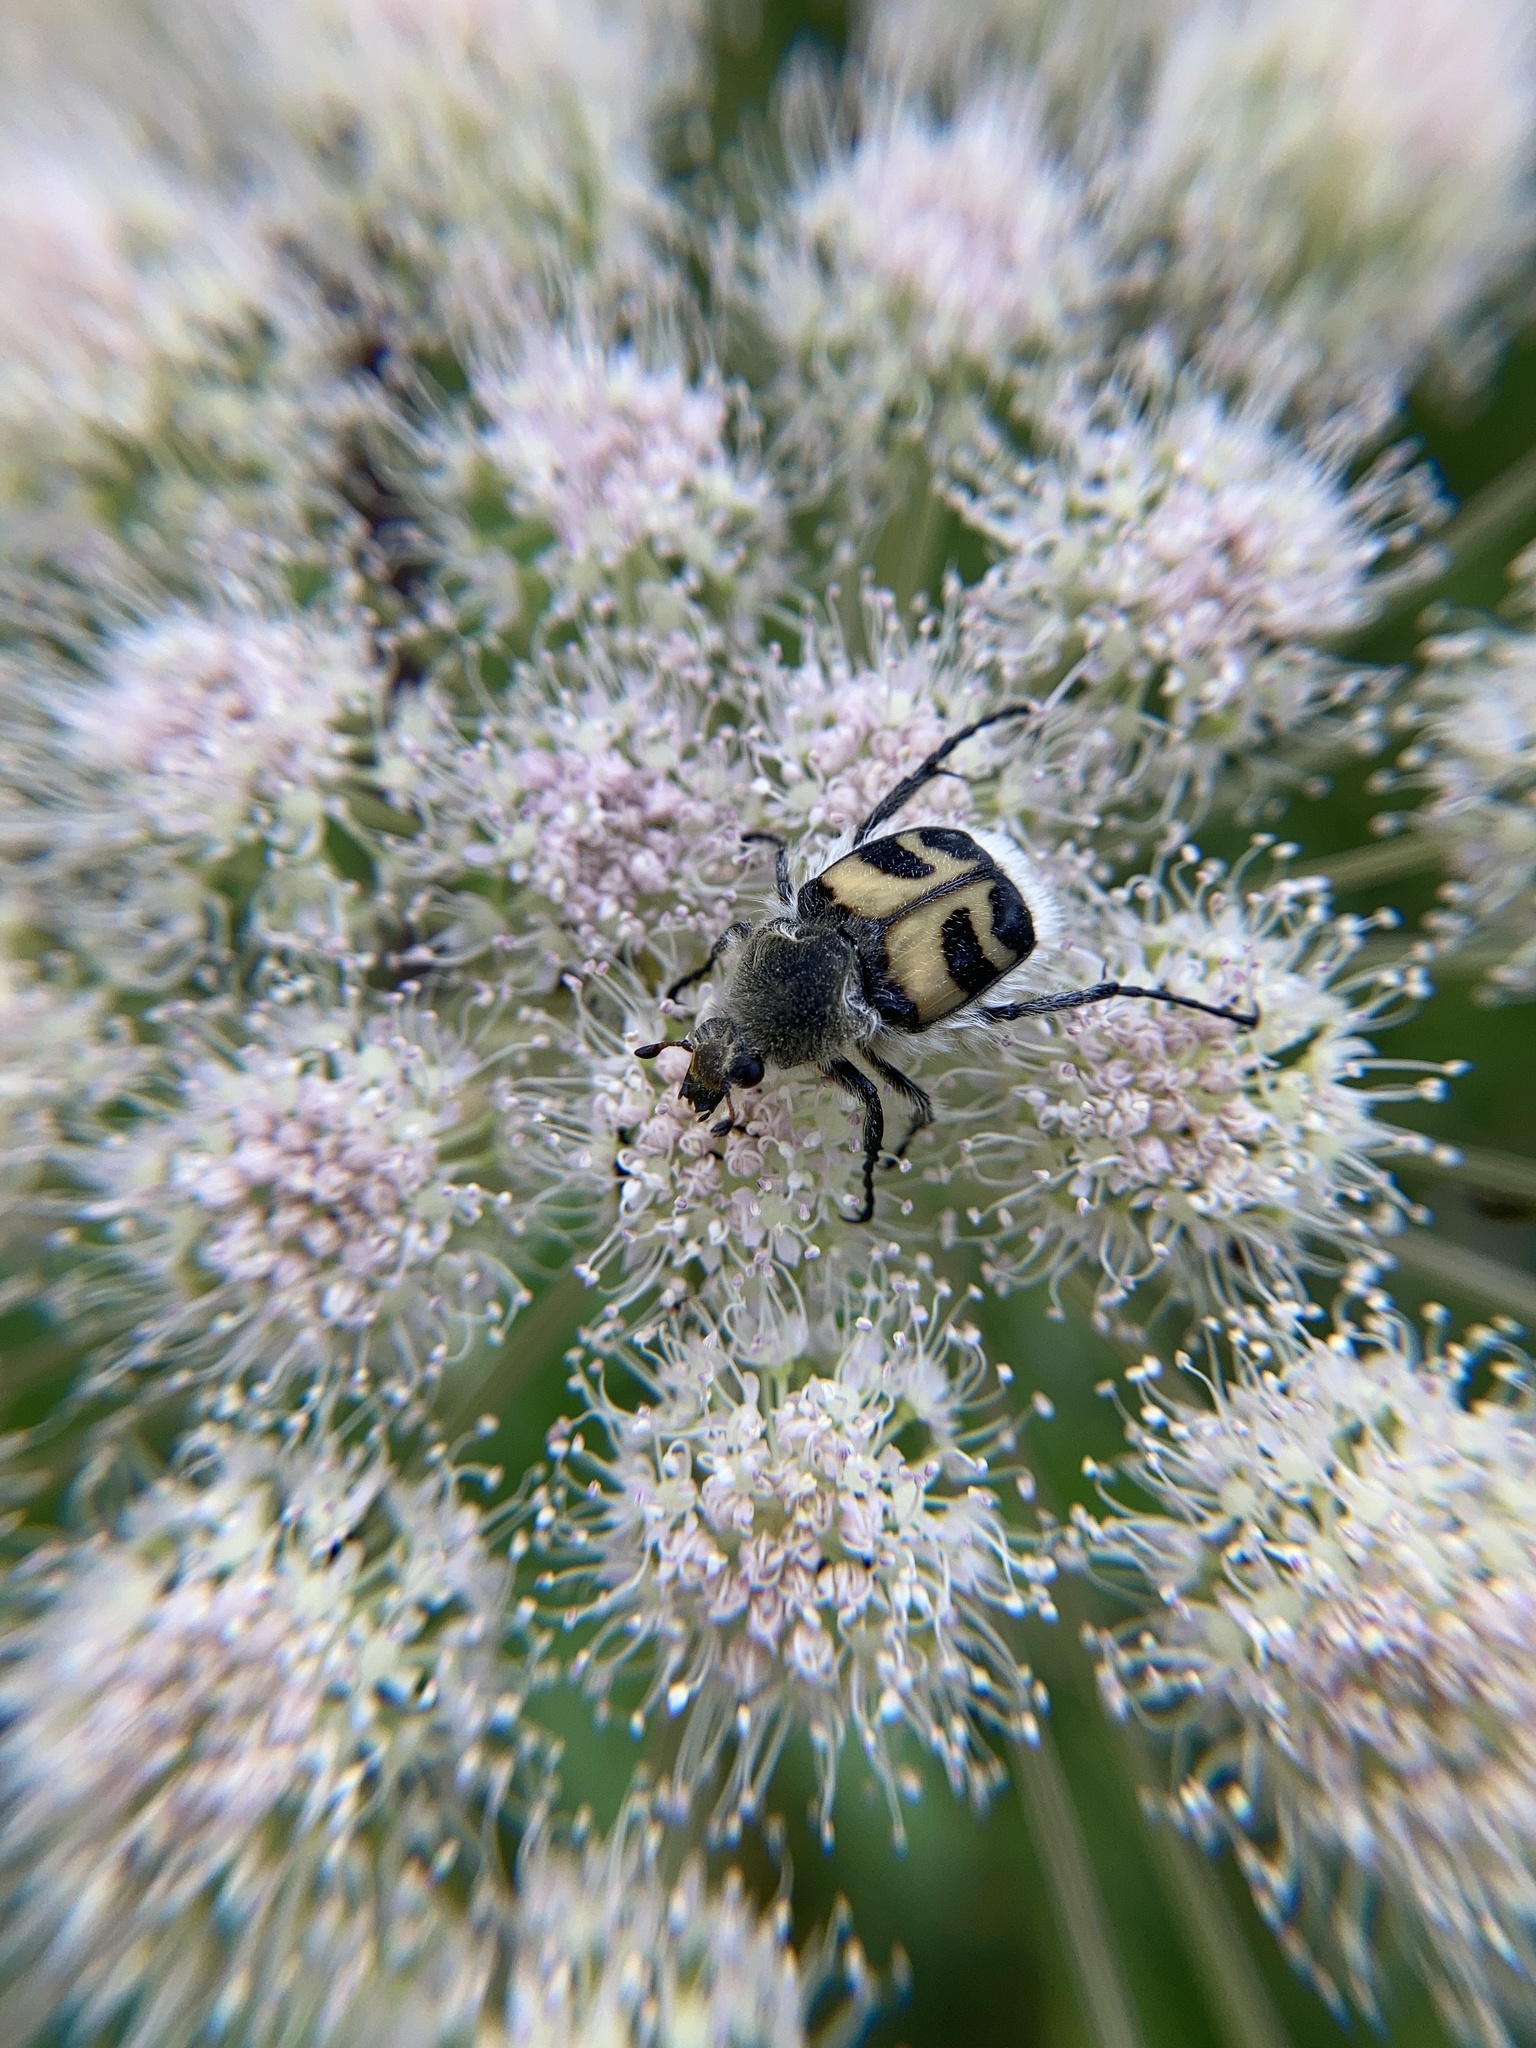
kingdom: Animalia
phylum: Arthropoda
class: Insecta
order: Coleoptera
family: Scarabaeidae
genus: Trichius
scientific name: Trichius fasciatus
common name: Bee beetle
